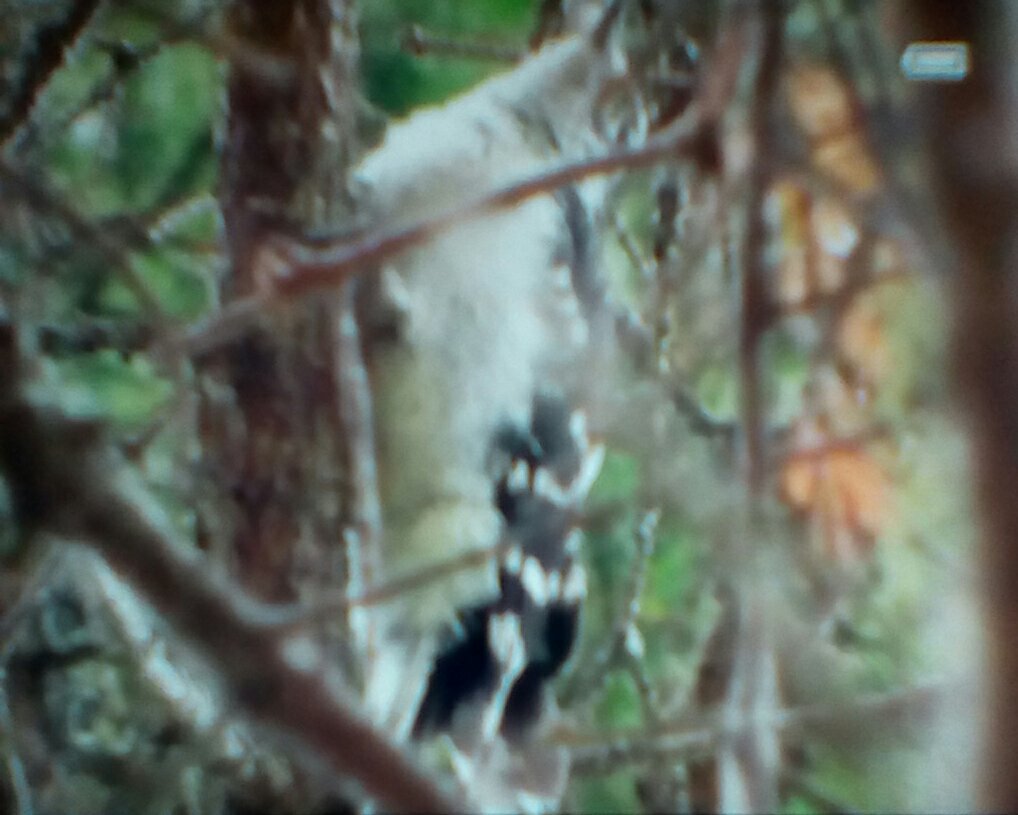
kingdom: Animalia
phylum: Chordata
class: Aves
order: Piciformes
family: Picidae
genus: Dryobates
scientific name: Dryobates pubescens
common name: Downy woodpecker
